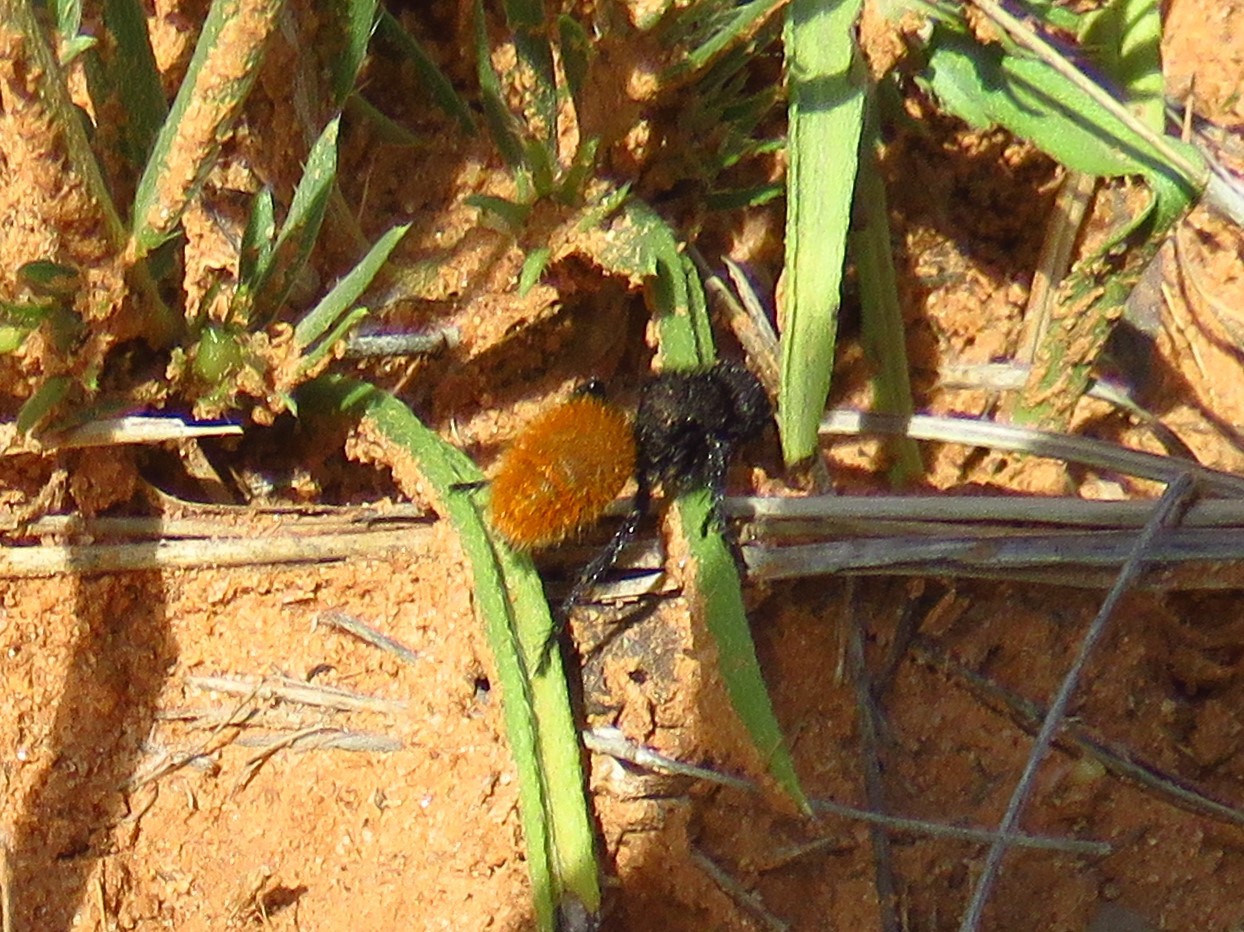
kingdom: Animalia
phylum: Arthropoda
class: Insecta
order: Hymenoptera
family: Mutillidae
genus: Dasymutilla
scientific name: Dasymutilla gorgon
